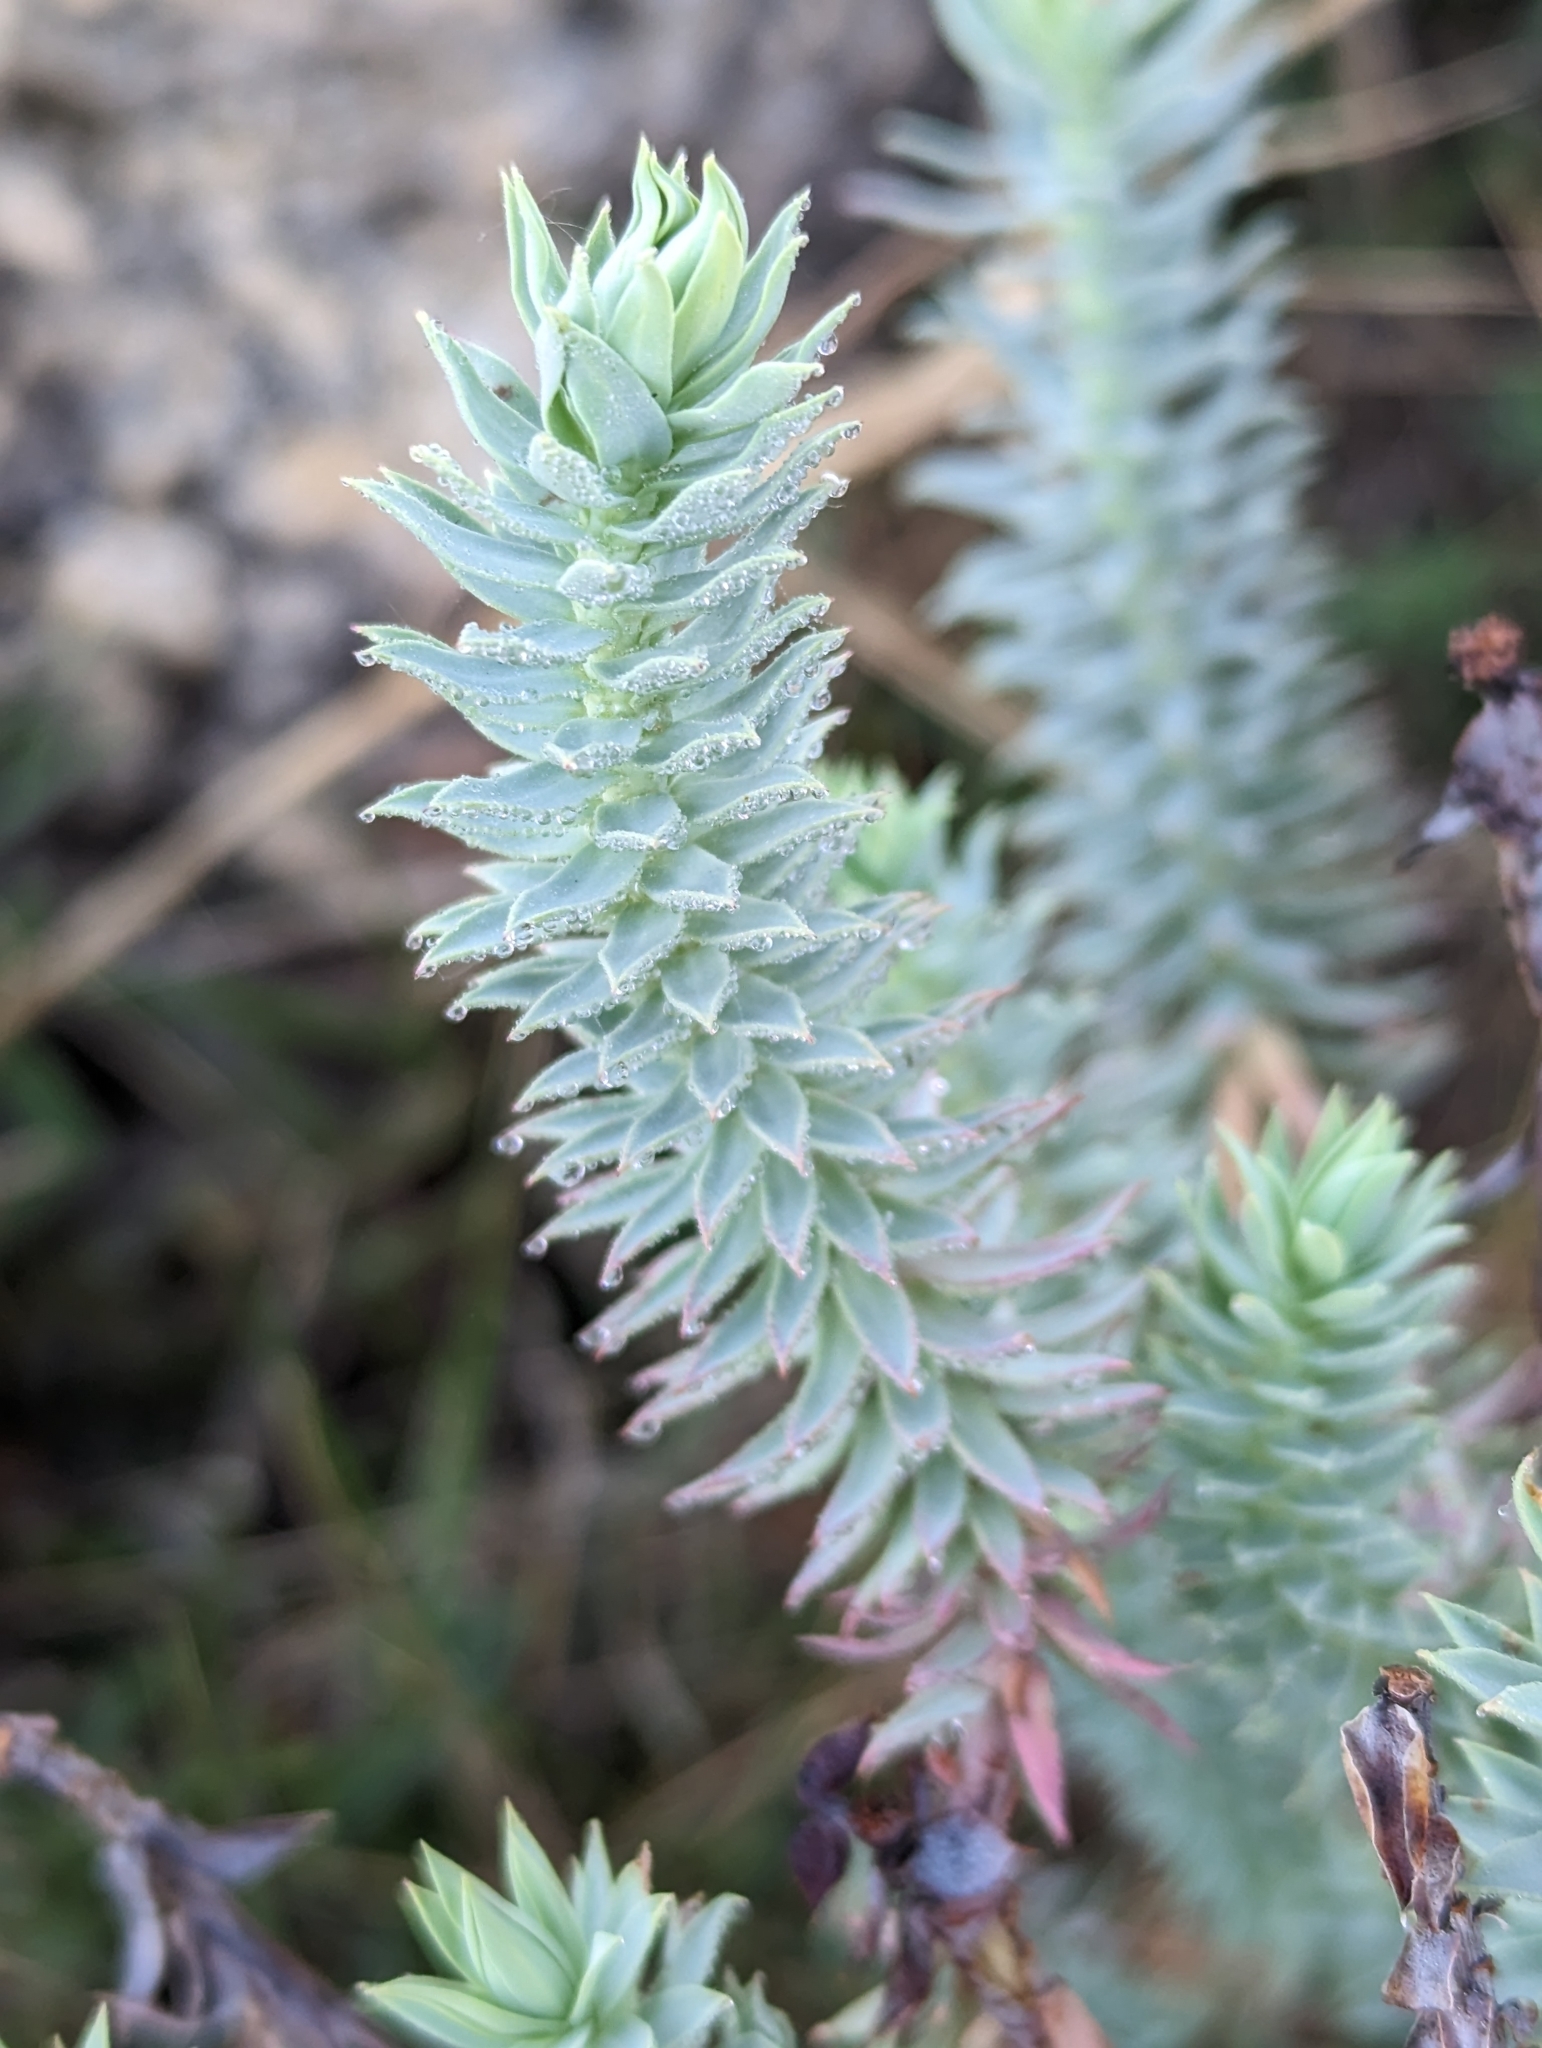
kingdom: Plantae
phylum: Tracheophyta
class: Magnoliopsida
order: Malpighiales
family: Euphorbiaceae
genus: Euphorbia
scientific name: Euphorbia pithyusa
